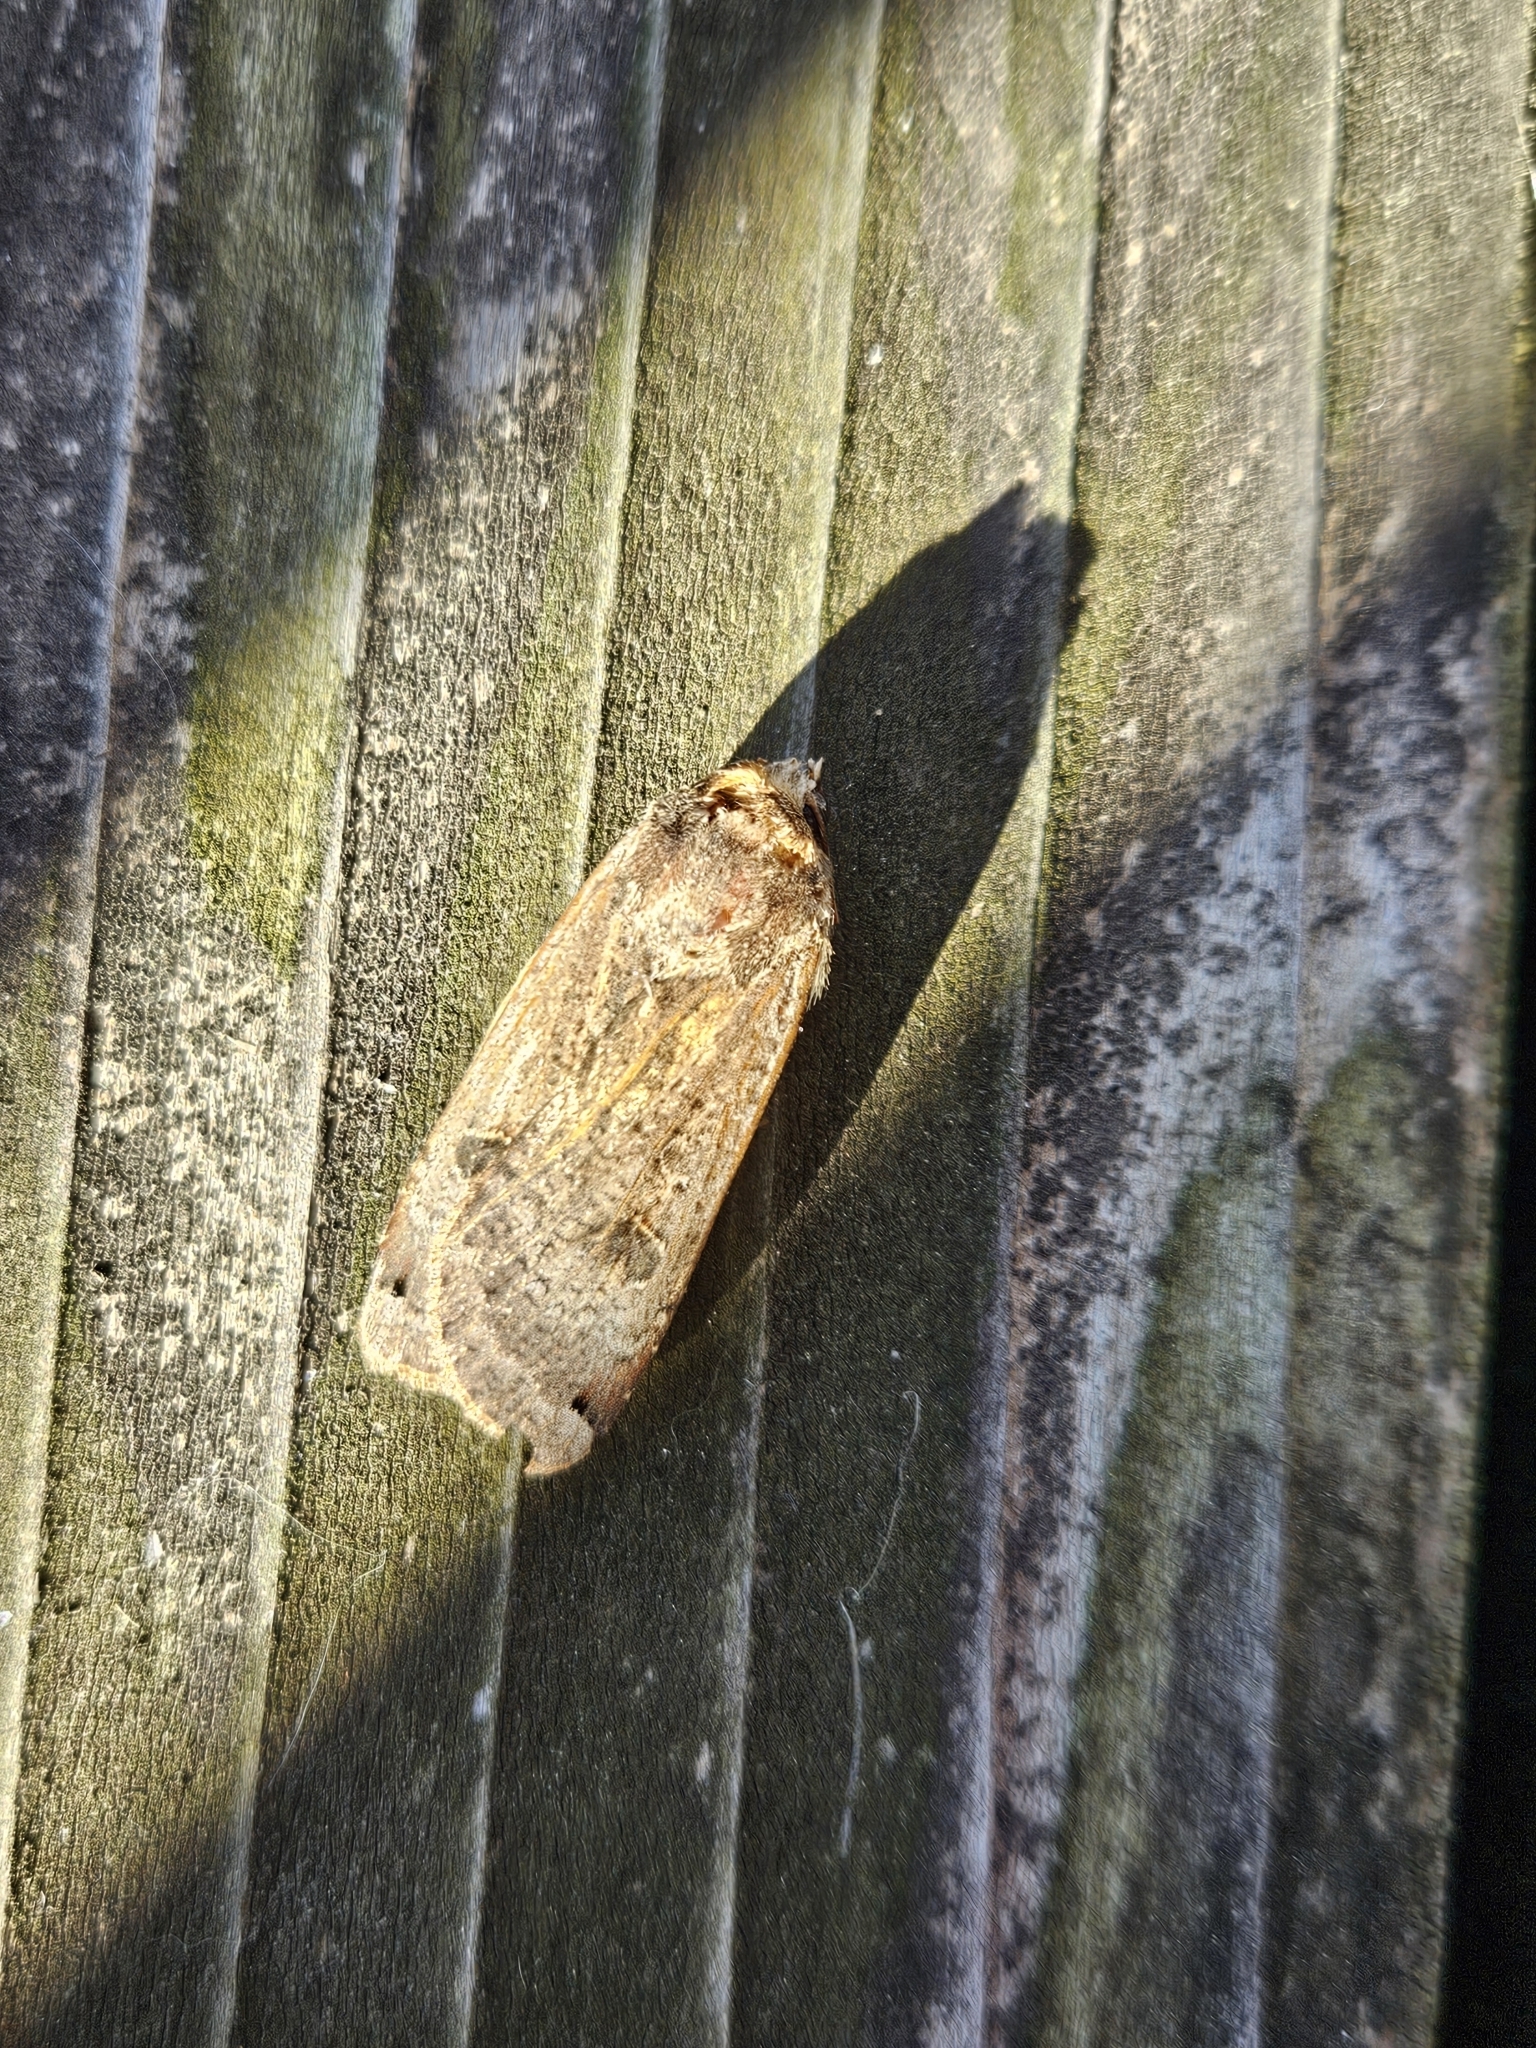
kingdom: Animalia
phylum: Arthropoda
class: Insecta
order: Lepidoptera
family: Noctuidae
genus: Noctua
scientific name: Noctua pronuba
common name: Large yellow underwing
